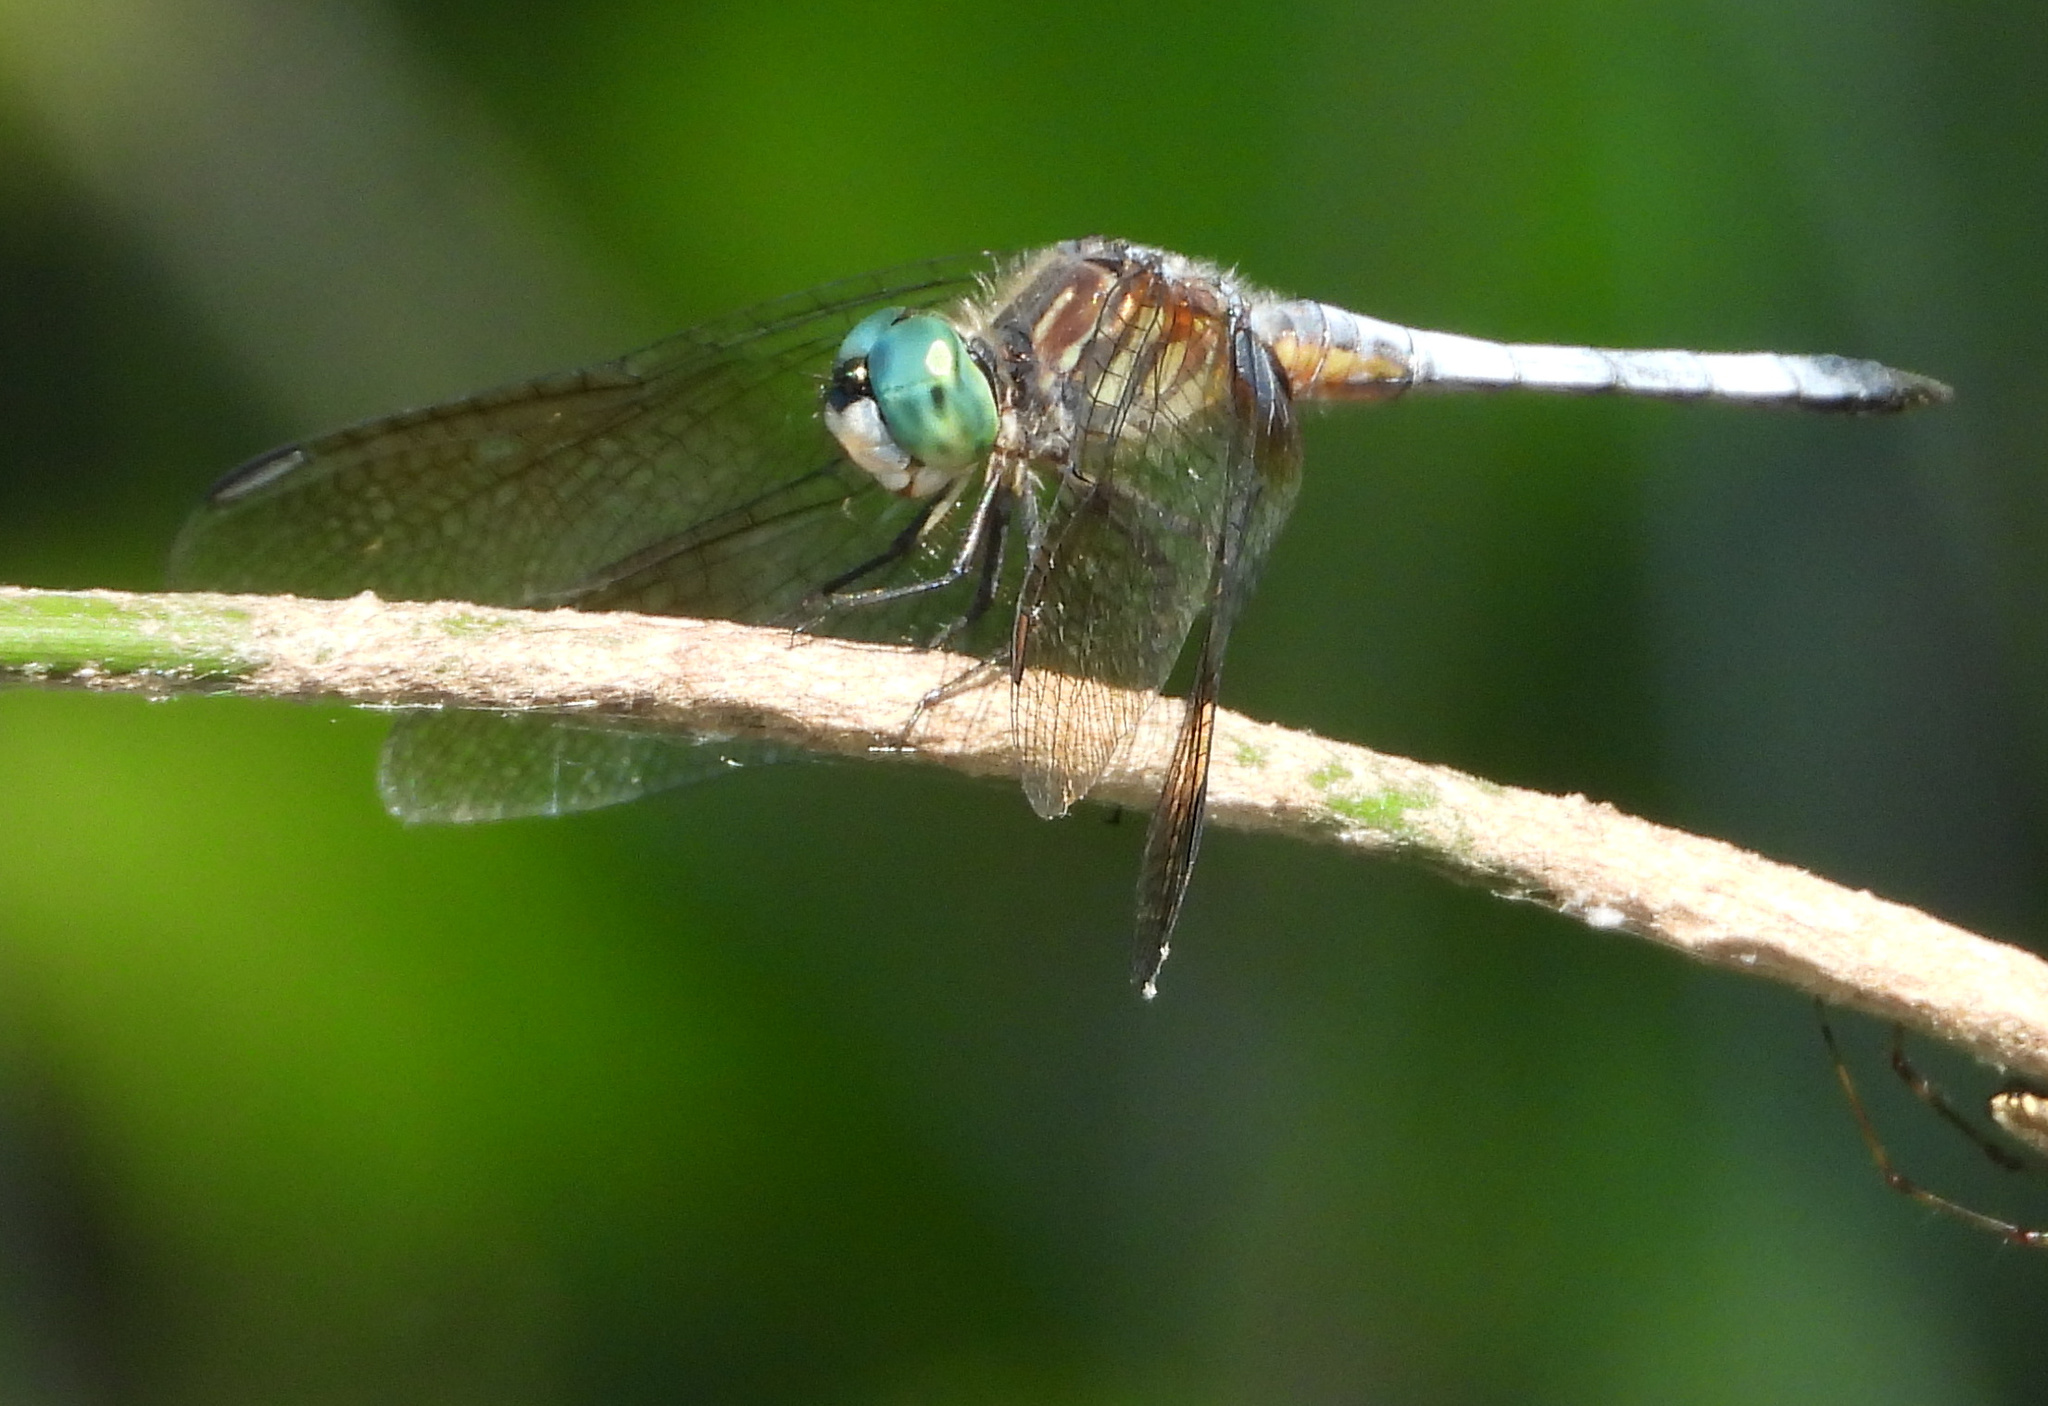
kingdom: Animalia
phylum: Arthropoda
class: Insecta
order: Odonata
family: Libellulidae
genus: Pachydiplax
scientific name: Pachydiplax longipennis
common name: Blue dasher
